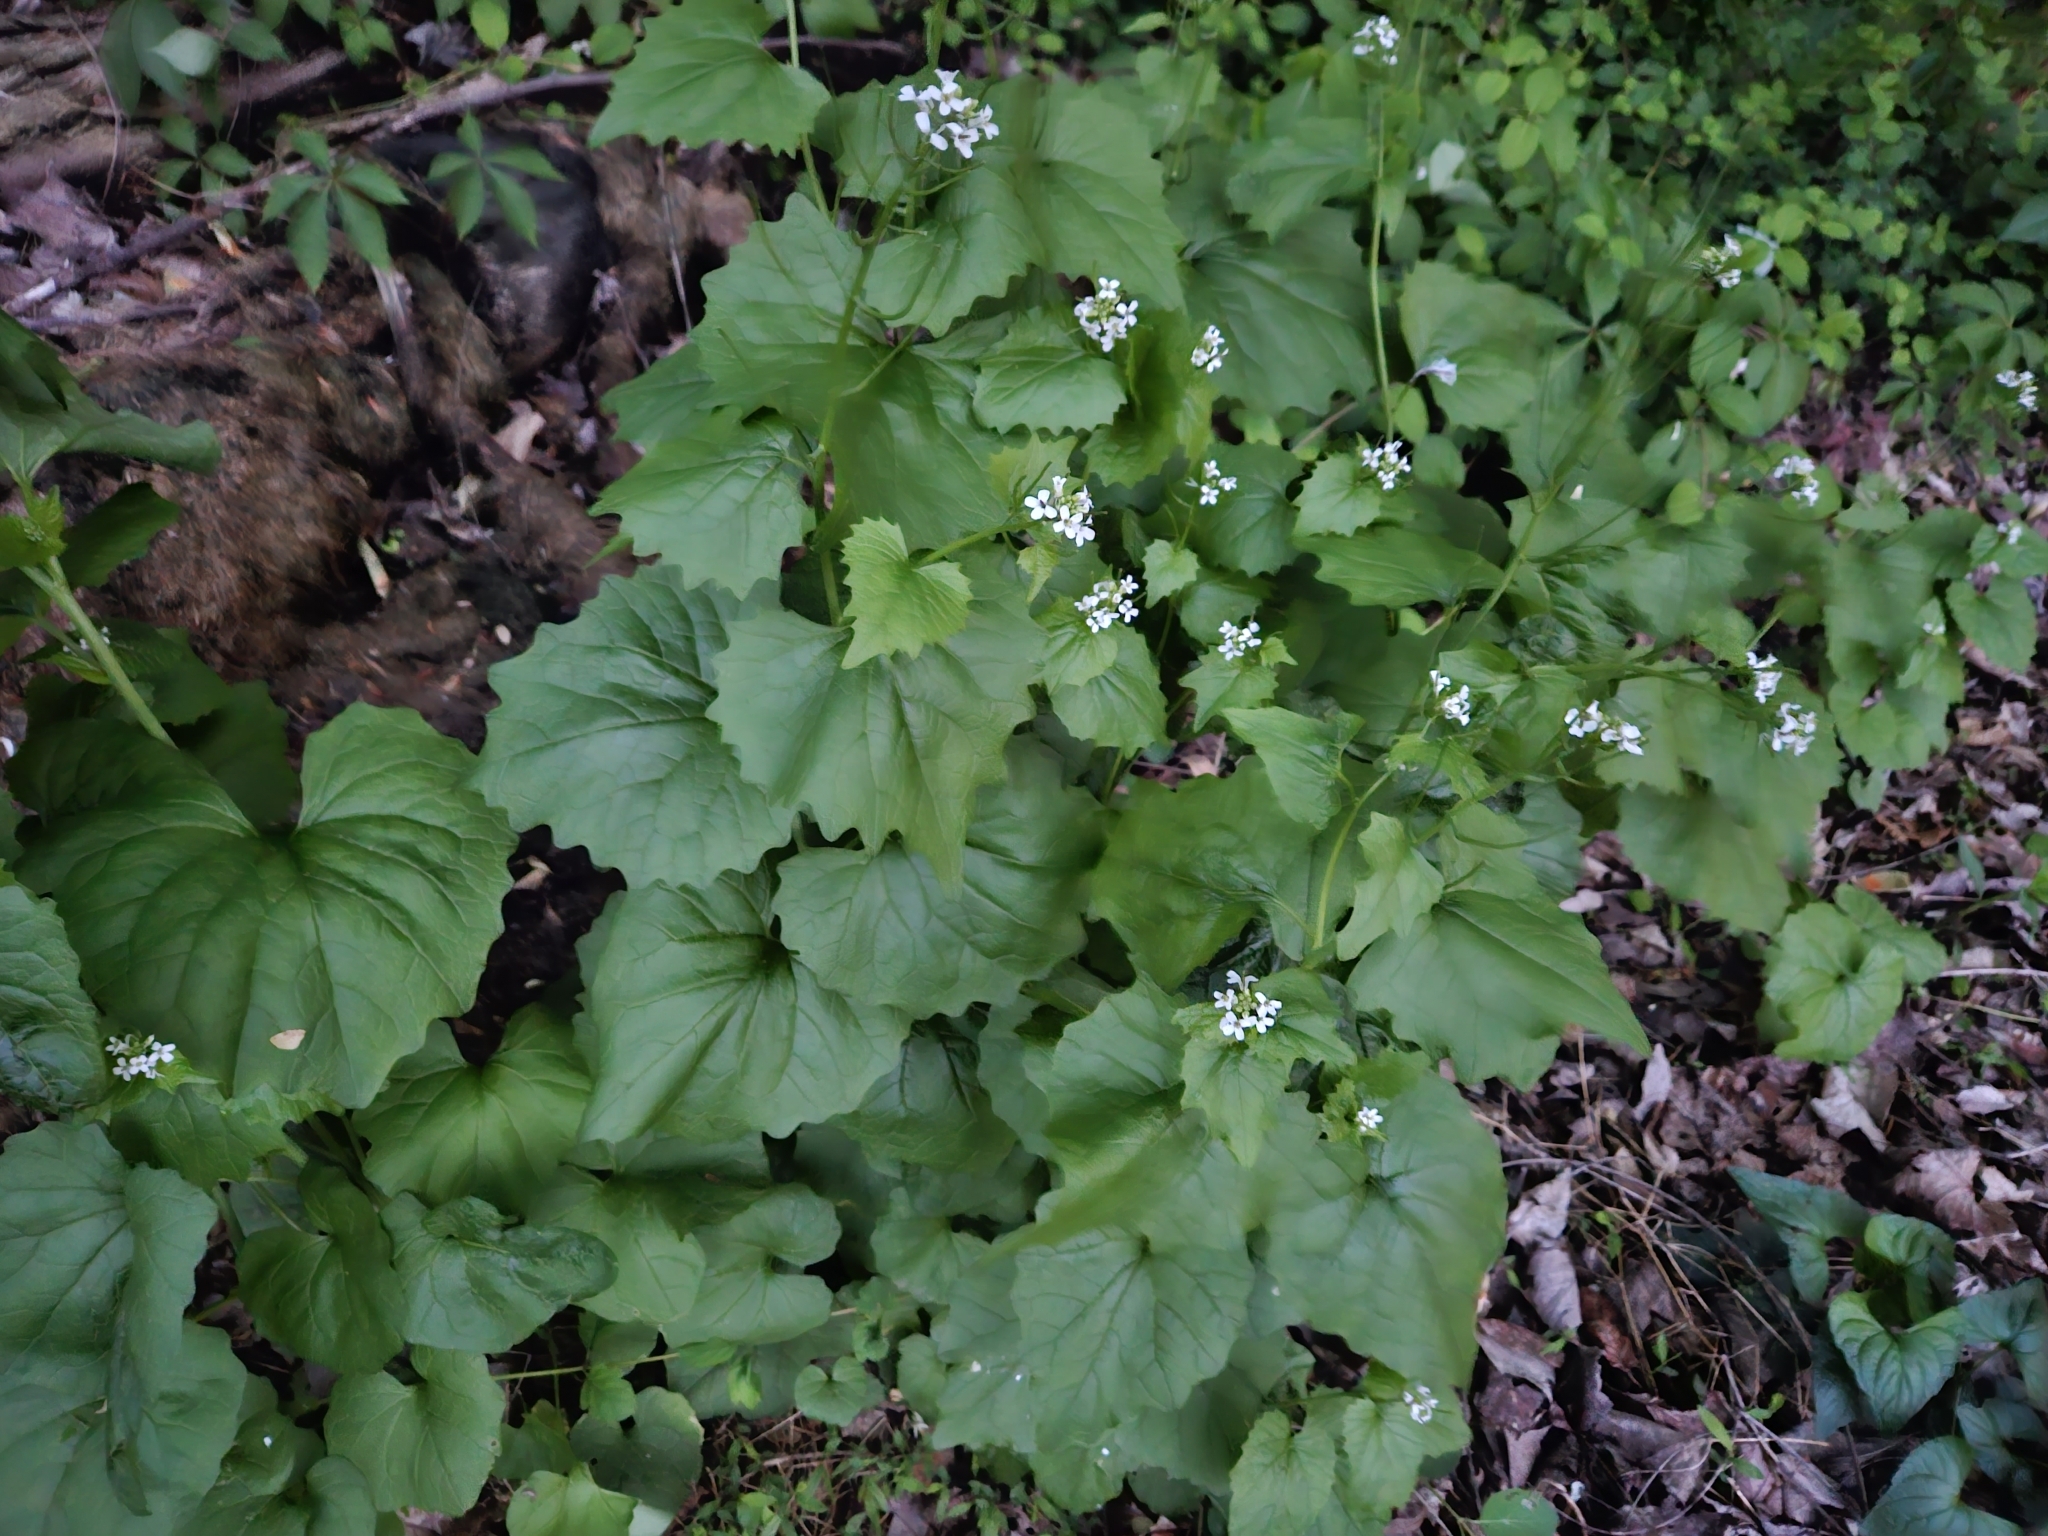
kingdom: Plantae
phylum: Tracheophyta
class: Magnoliopsida
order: Brassicales
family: Brassicaceae
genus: Alliaria
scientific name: Alliaria petiolata
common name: Garlic mustard
